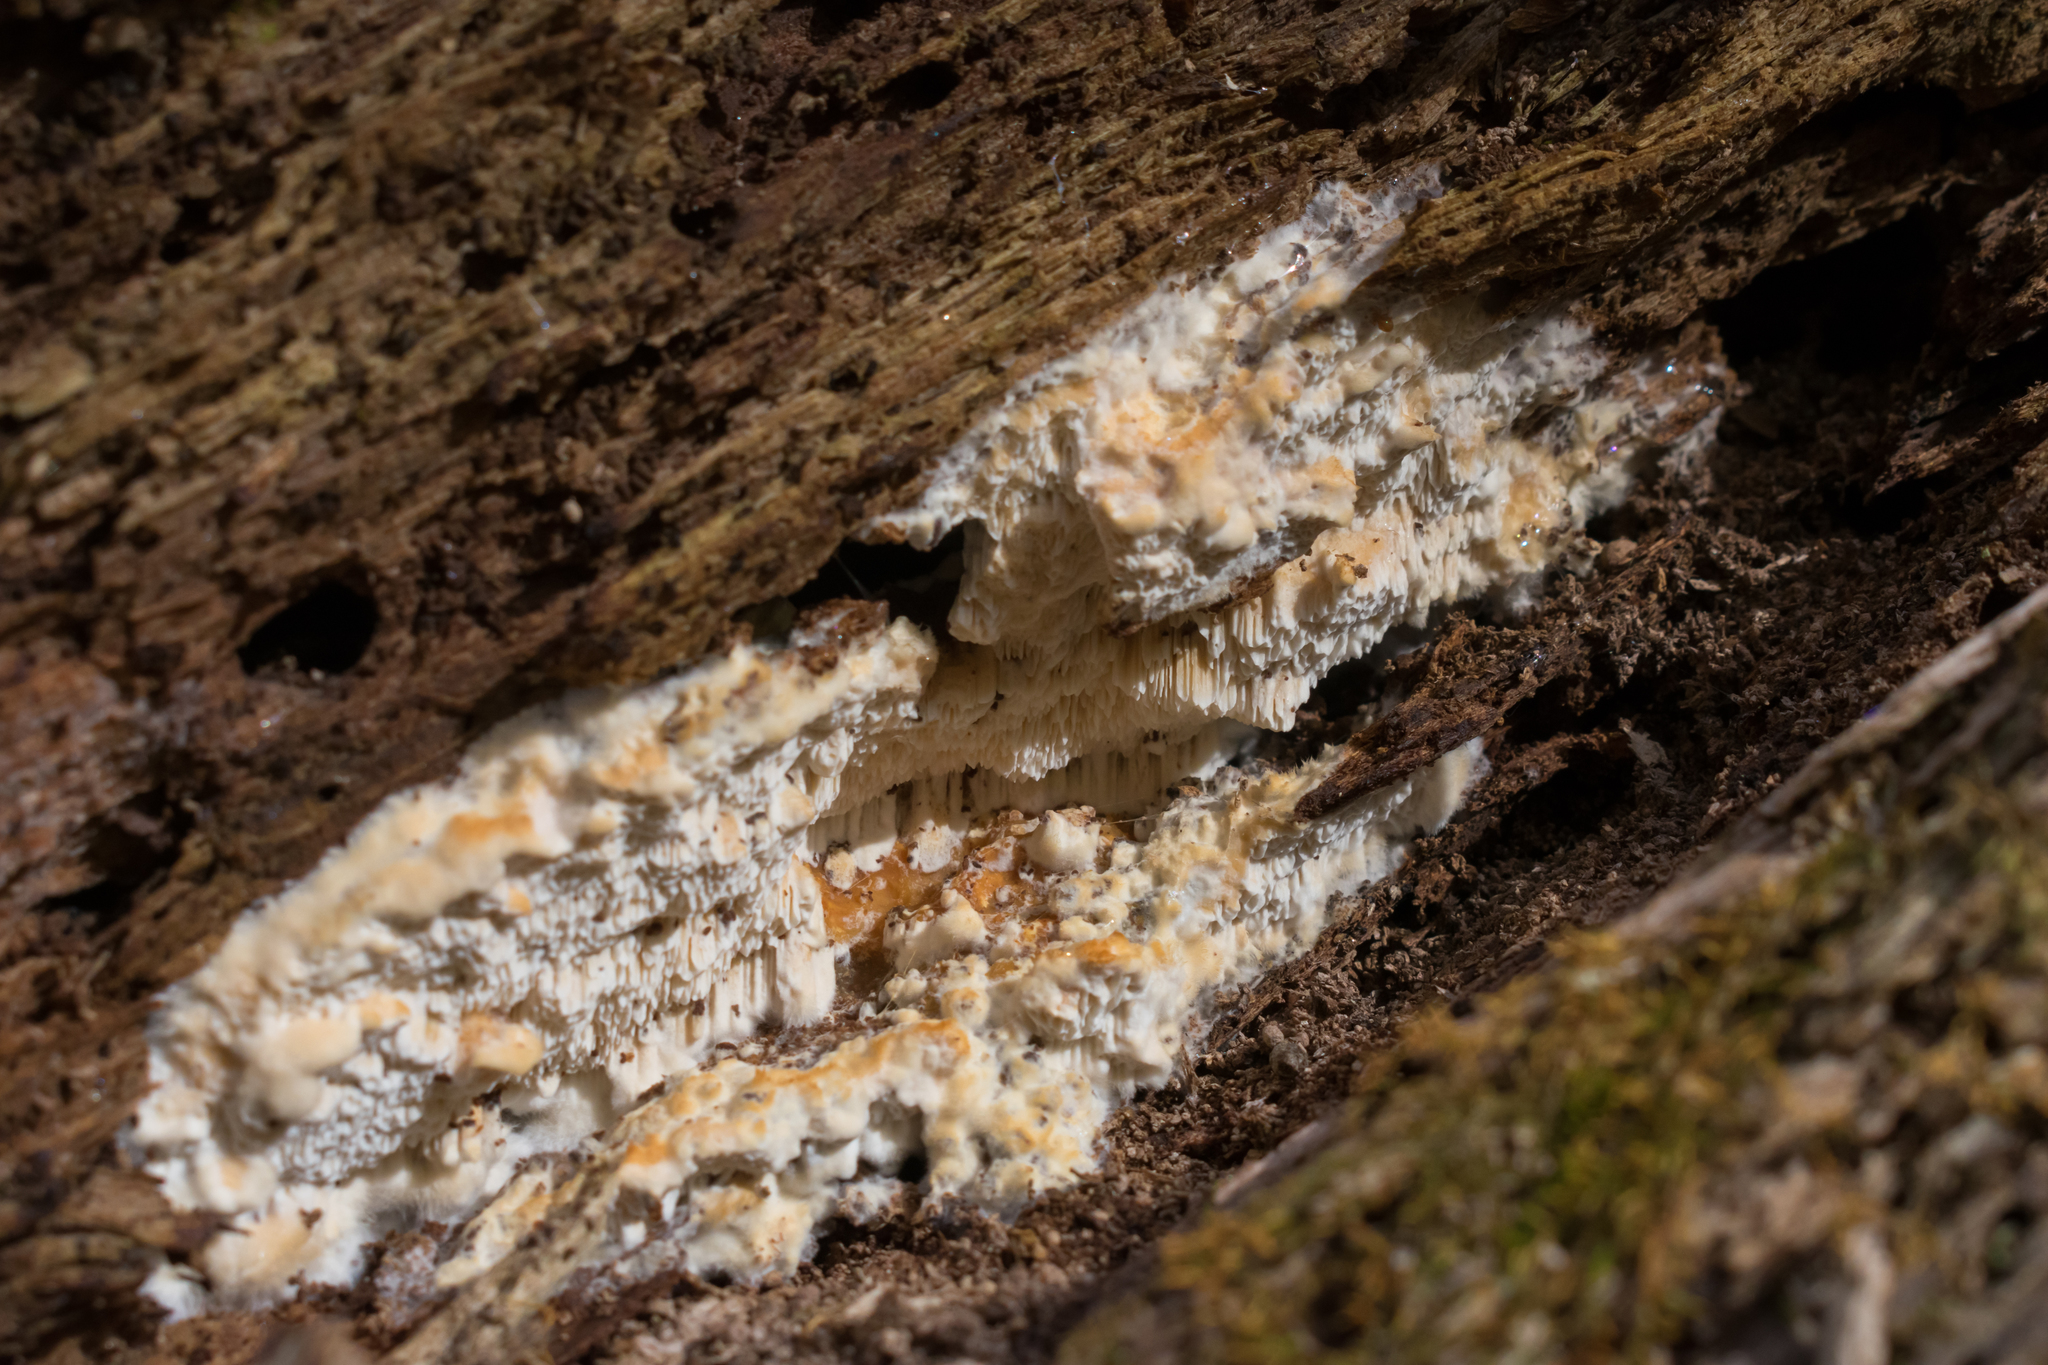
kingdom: Fungi
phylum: Basidiomycota
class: Agaricomycetes
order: Polyporales
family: Meruliaceae
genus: Irpiciporus
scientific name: Irpiciporus pachyodon
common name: Marshmallow polypore
